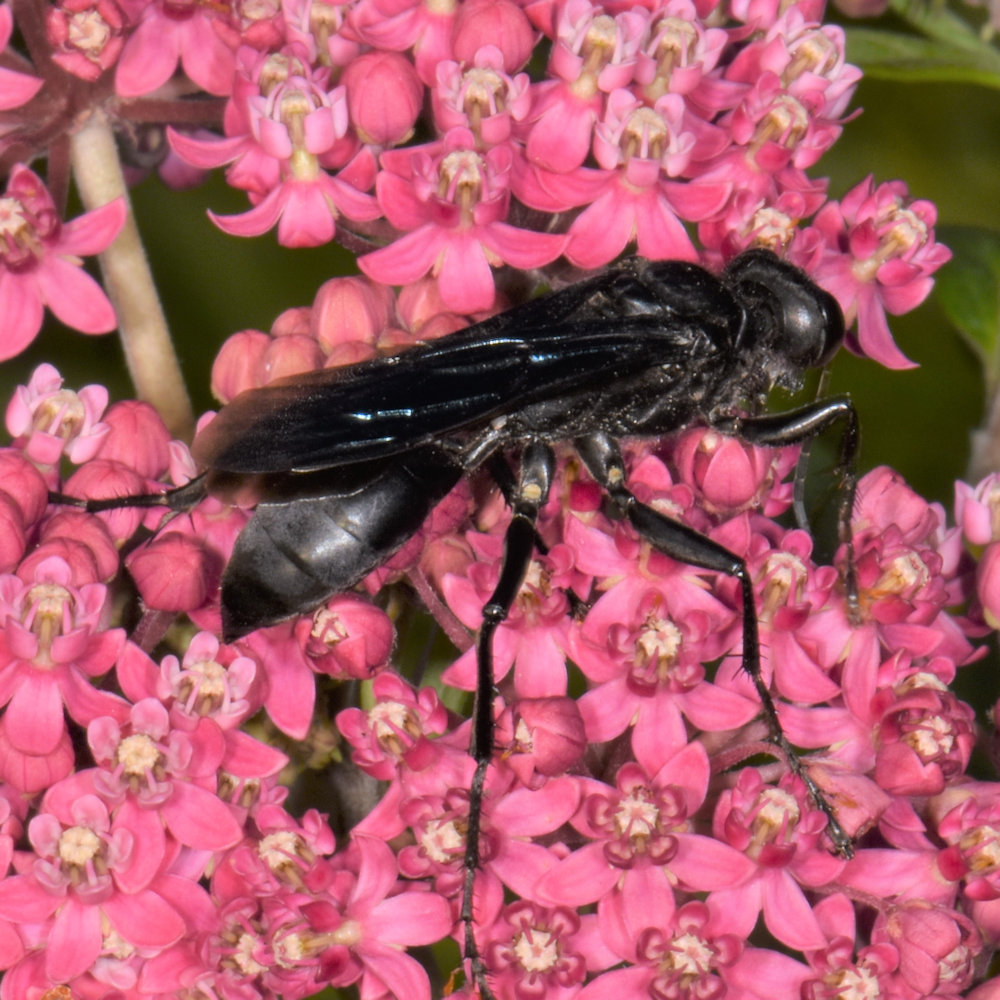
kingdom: Animalia
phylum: Arthropoda
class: Insecta
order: Hymenoptera
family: Sphecidae
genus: Sphex
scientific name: Sphex pensylvanicus
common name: Great black digger wasp
